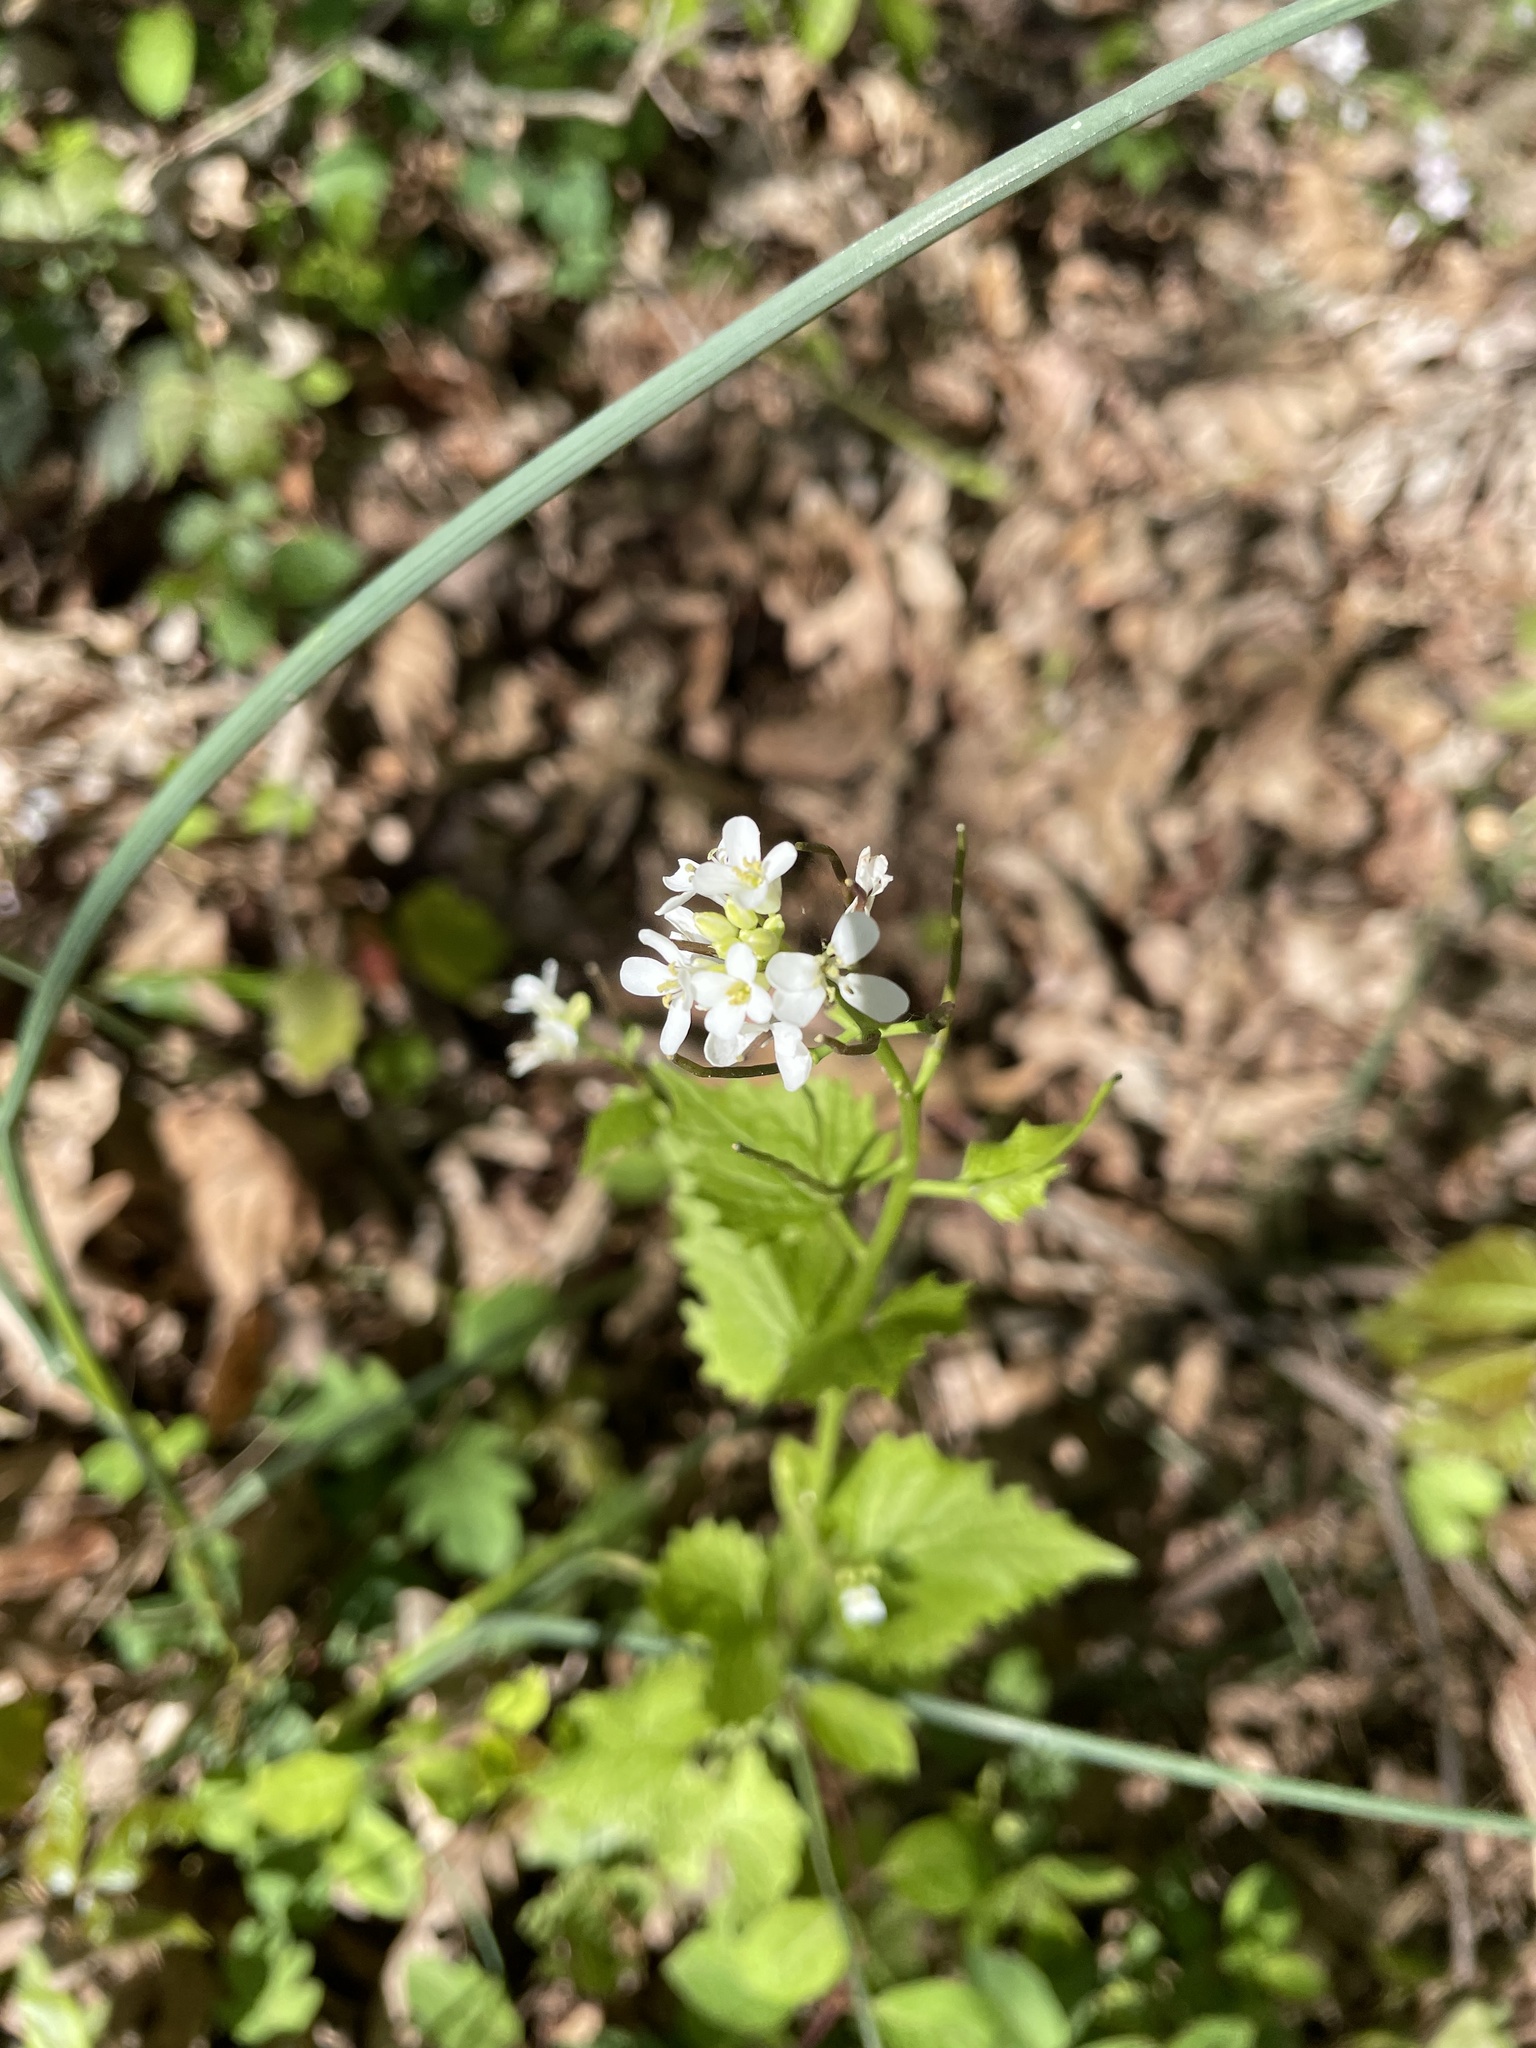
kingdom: Plantae
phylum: Tracheophyta
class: Magnoliopsida
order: Brassicales
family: Brassicaceae
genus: Alliaria
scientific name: Alliaria petiolata
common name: Garlic mustard
